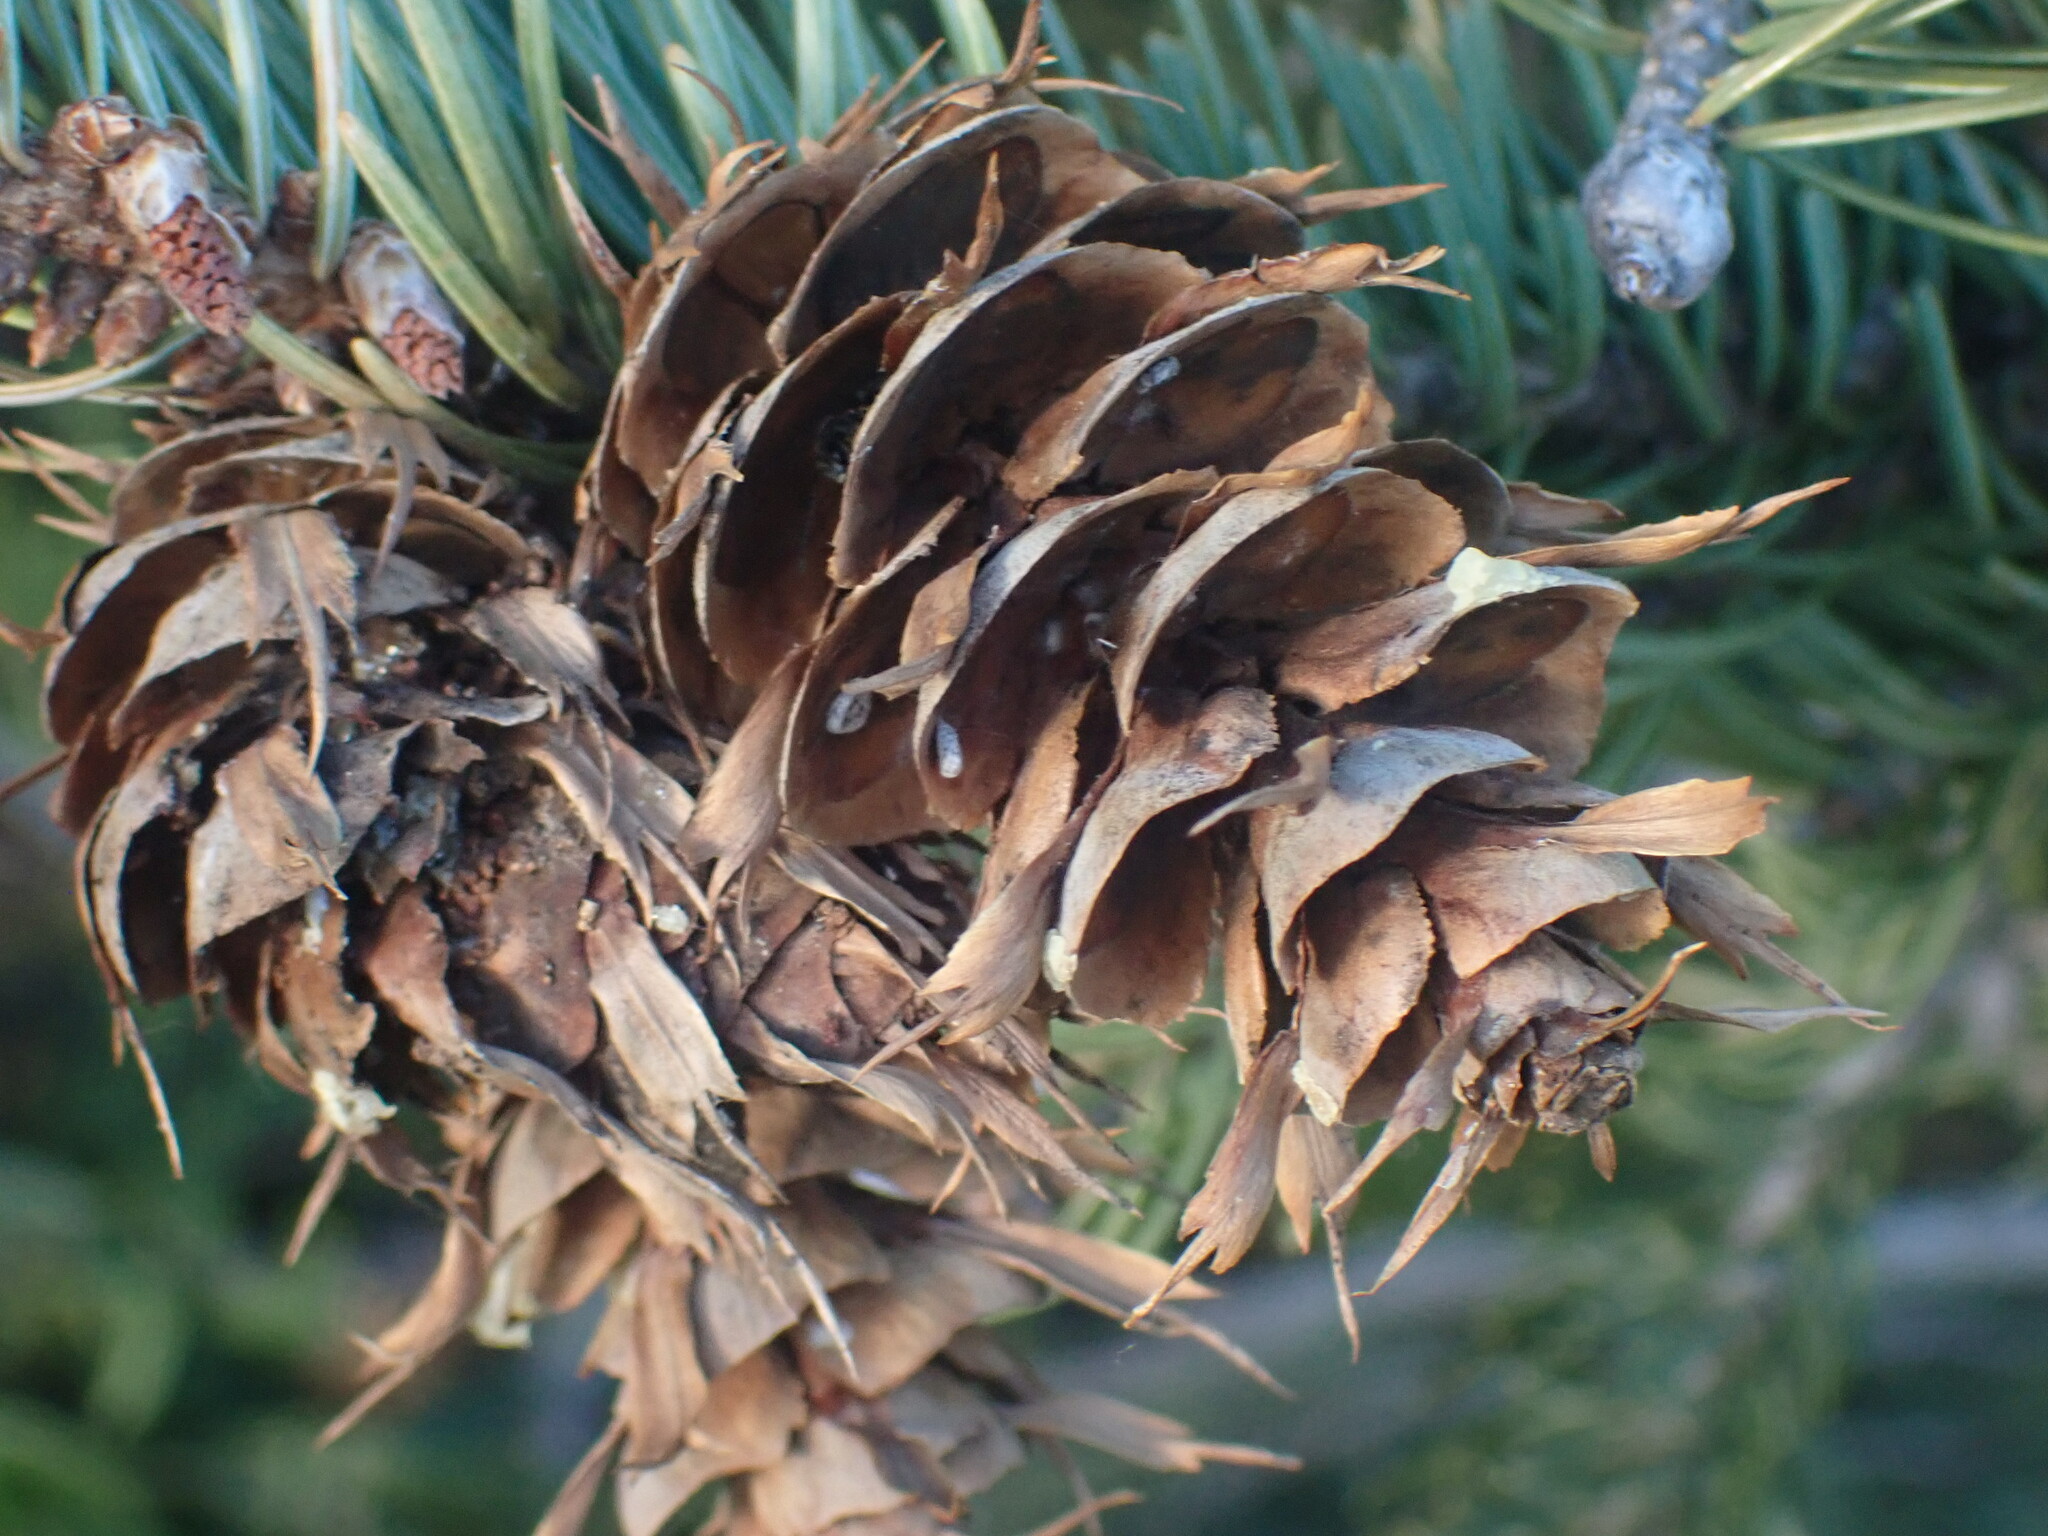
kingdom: Plantae
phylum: Tracheophyta
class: Pinopsida
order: Pinales
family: Pinaceae
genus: Pseudotsuga
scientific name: Pseudotsuga menziesii
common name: Douglas fir
